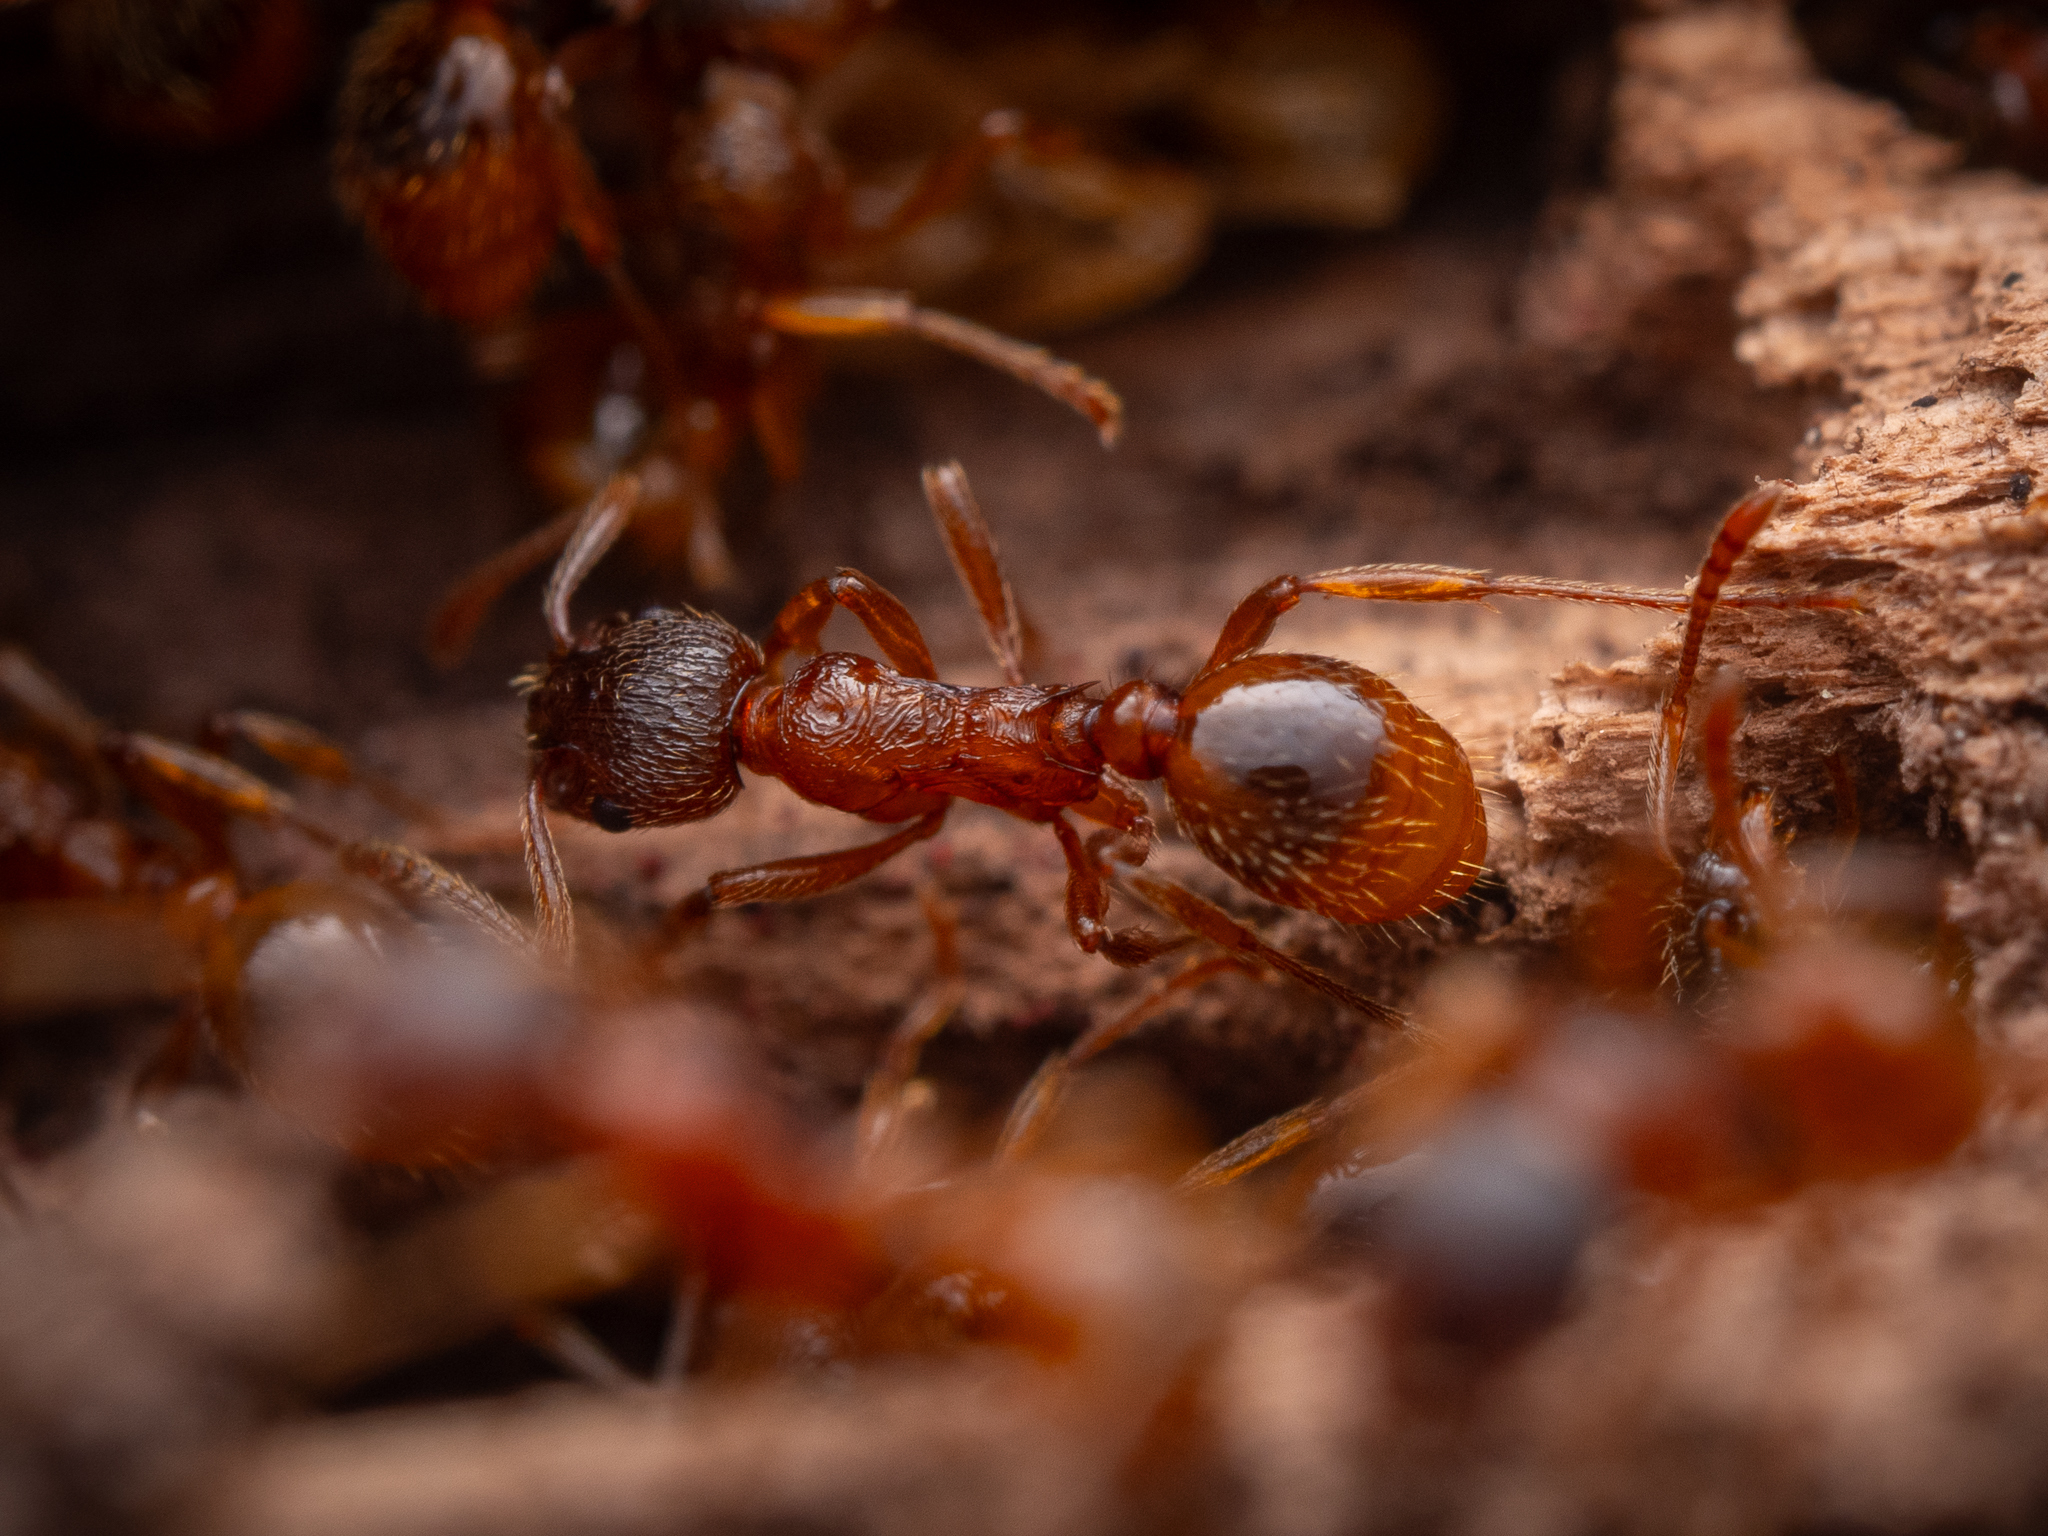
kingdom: Animalia
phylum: Arthropoda
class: Insecta
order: Hymenoptera
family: Formicidae
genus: Myrmica
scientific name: Myrmica rubra
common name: European fire ant
